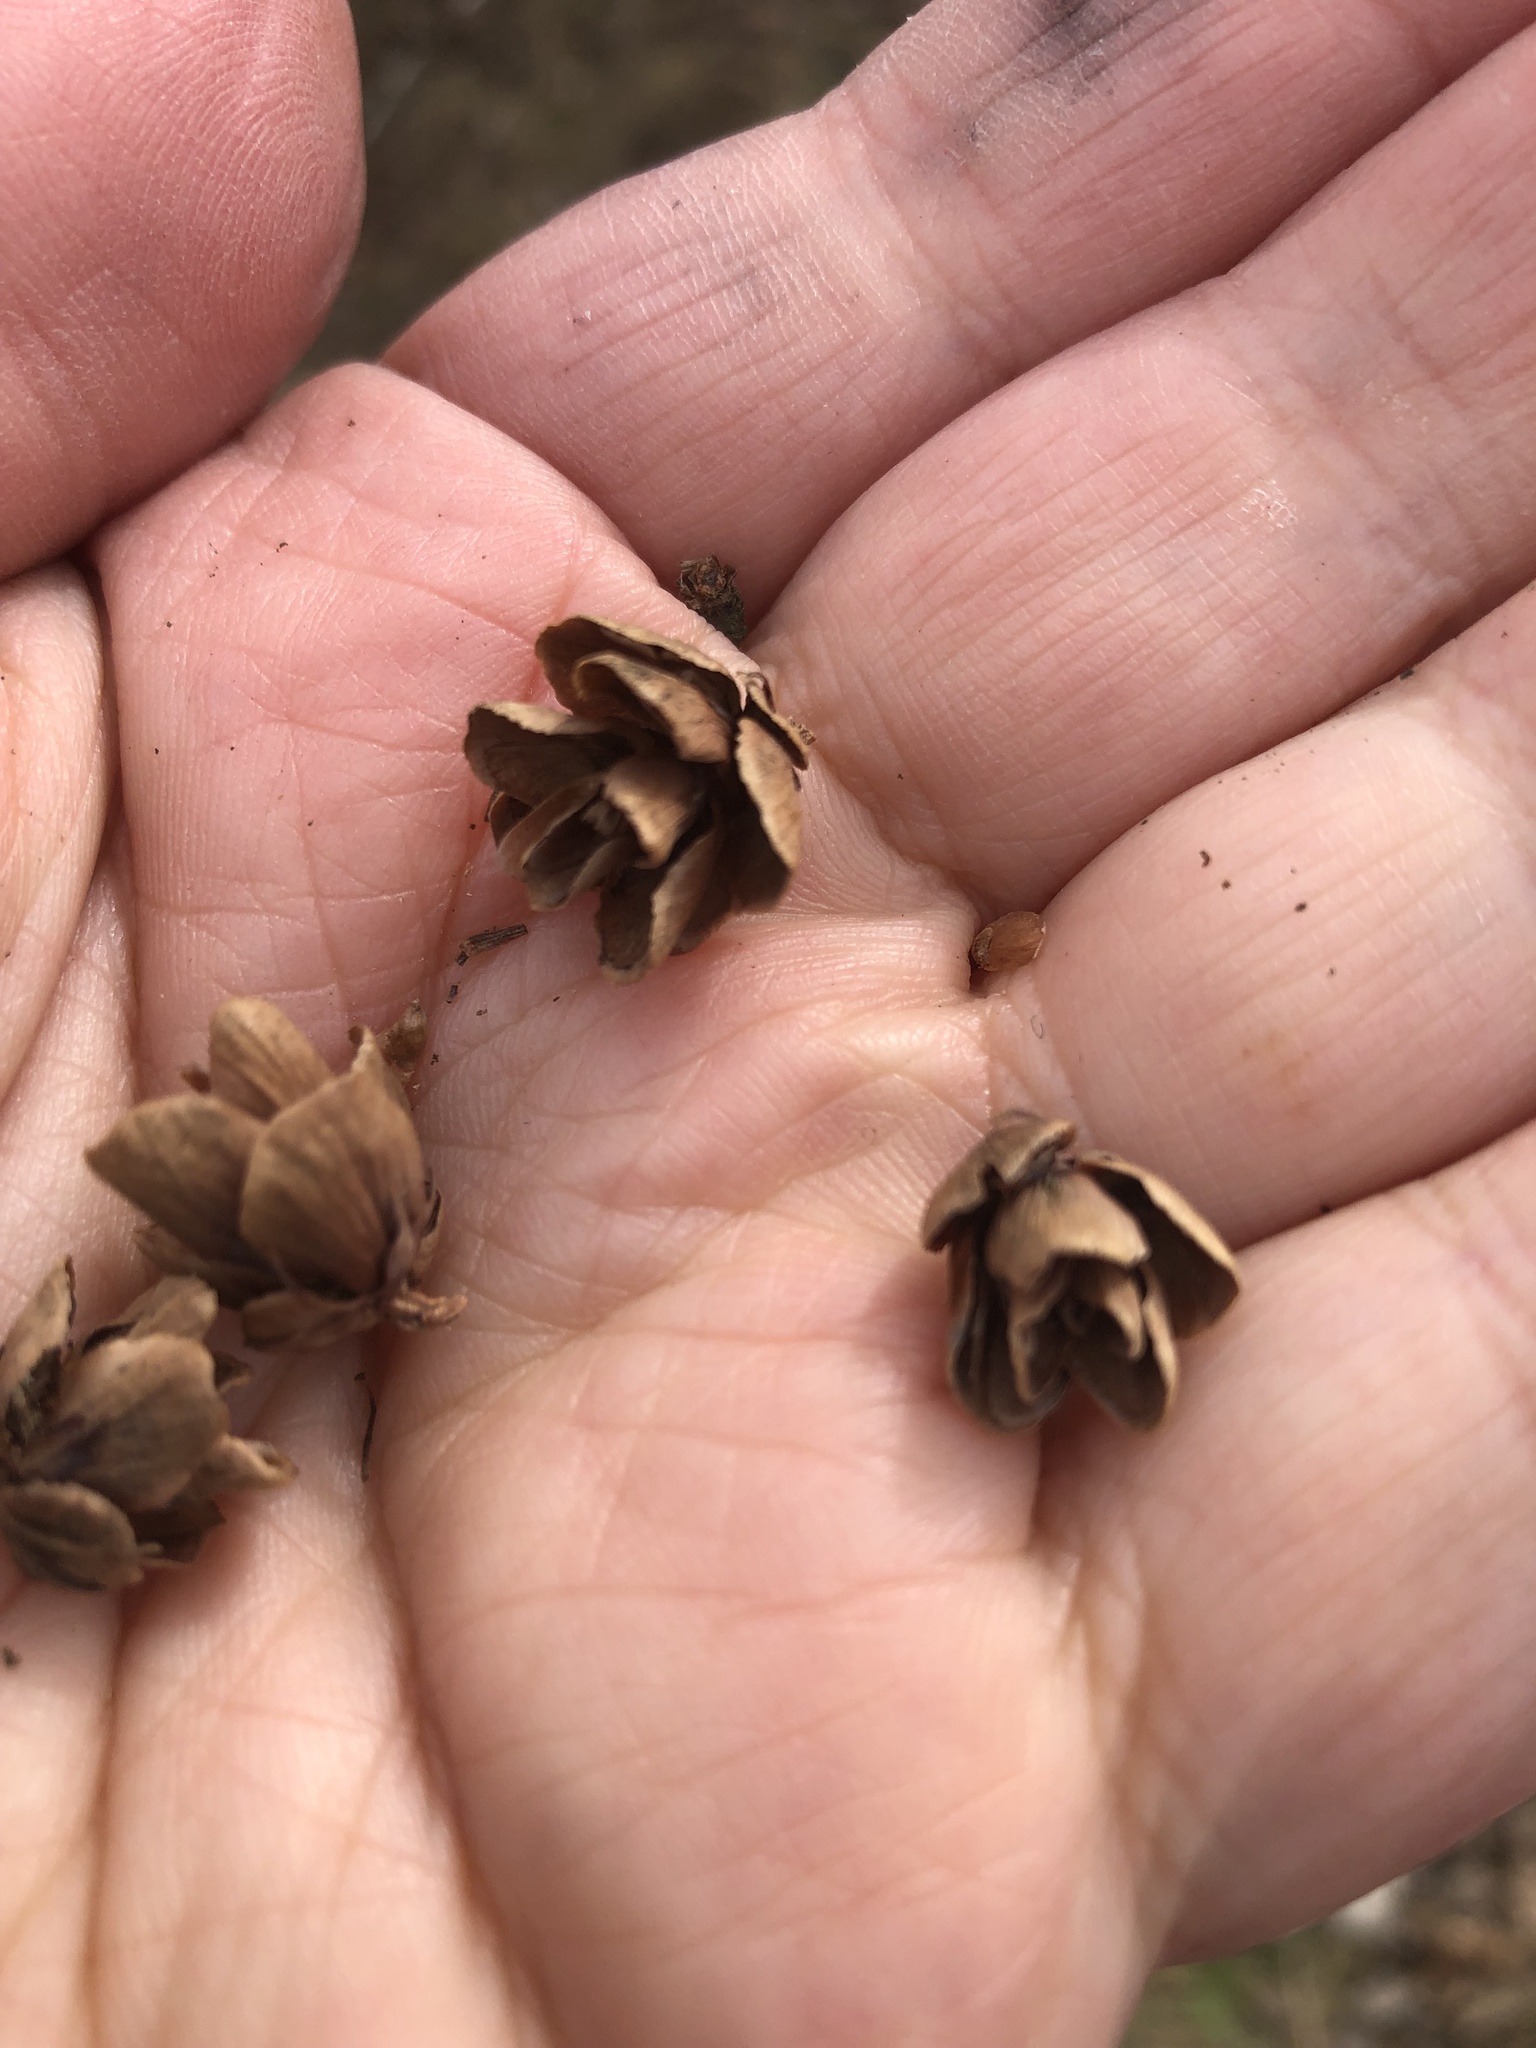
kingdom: Plantae
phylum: Tracheophyta
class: Pinopsida
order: Pinales
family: Pinaceae
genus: Larix
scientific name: Larix laricina
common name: American larch
